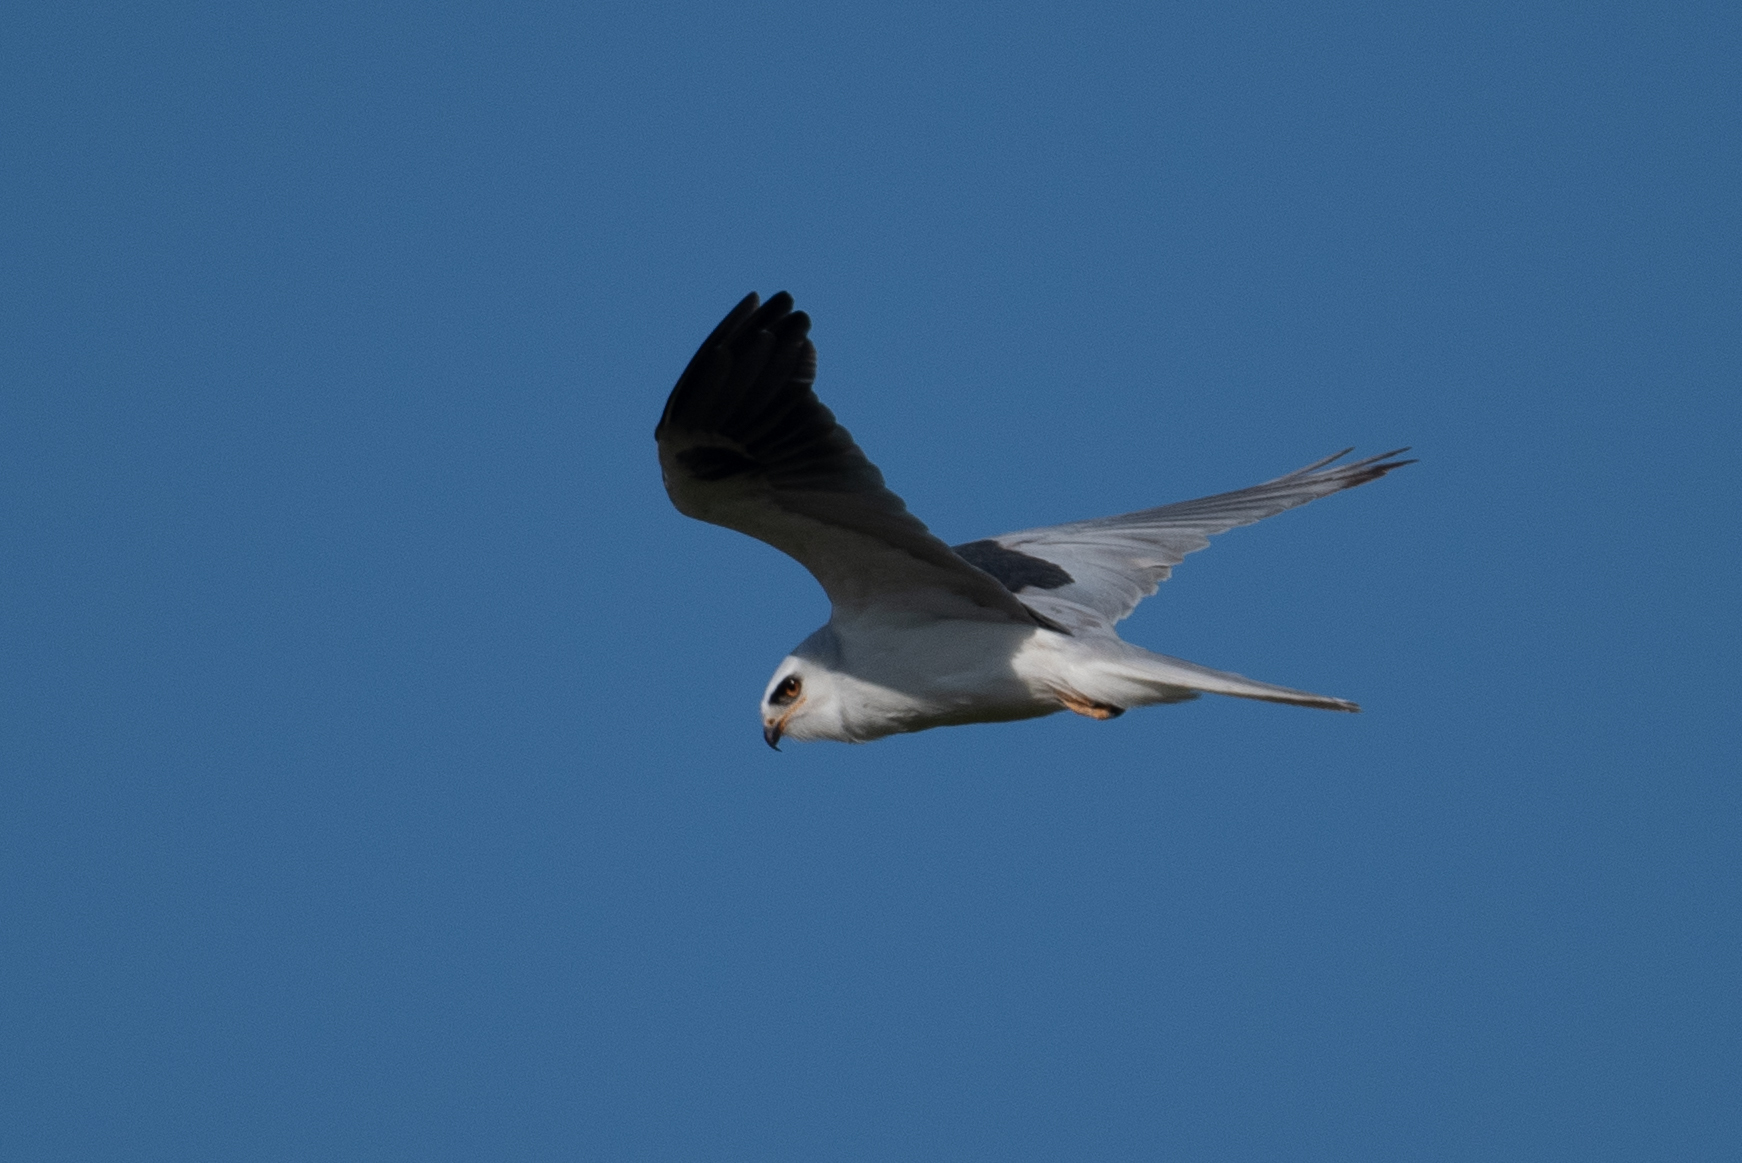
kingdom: Animalia
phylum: Chordata
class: Aves
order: Accipitriformes
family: Accipitridae
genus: Elanus
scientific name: Elanus leucurus
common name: White-tailed kite
